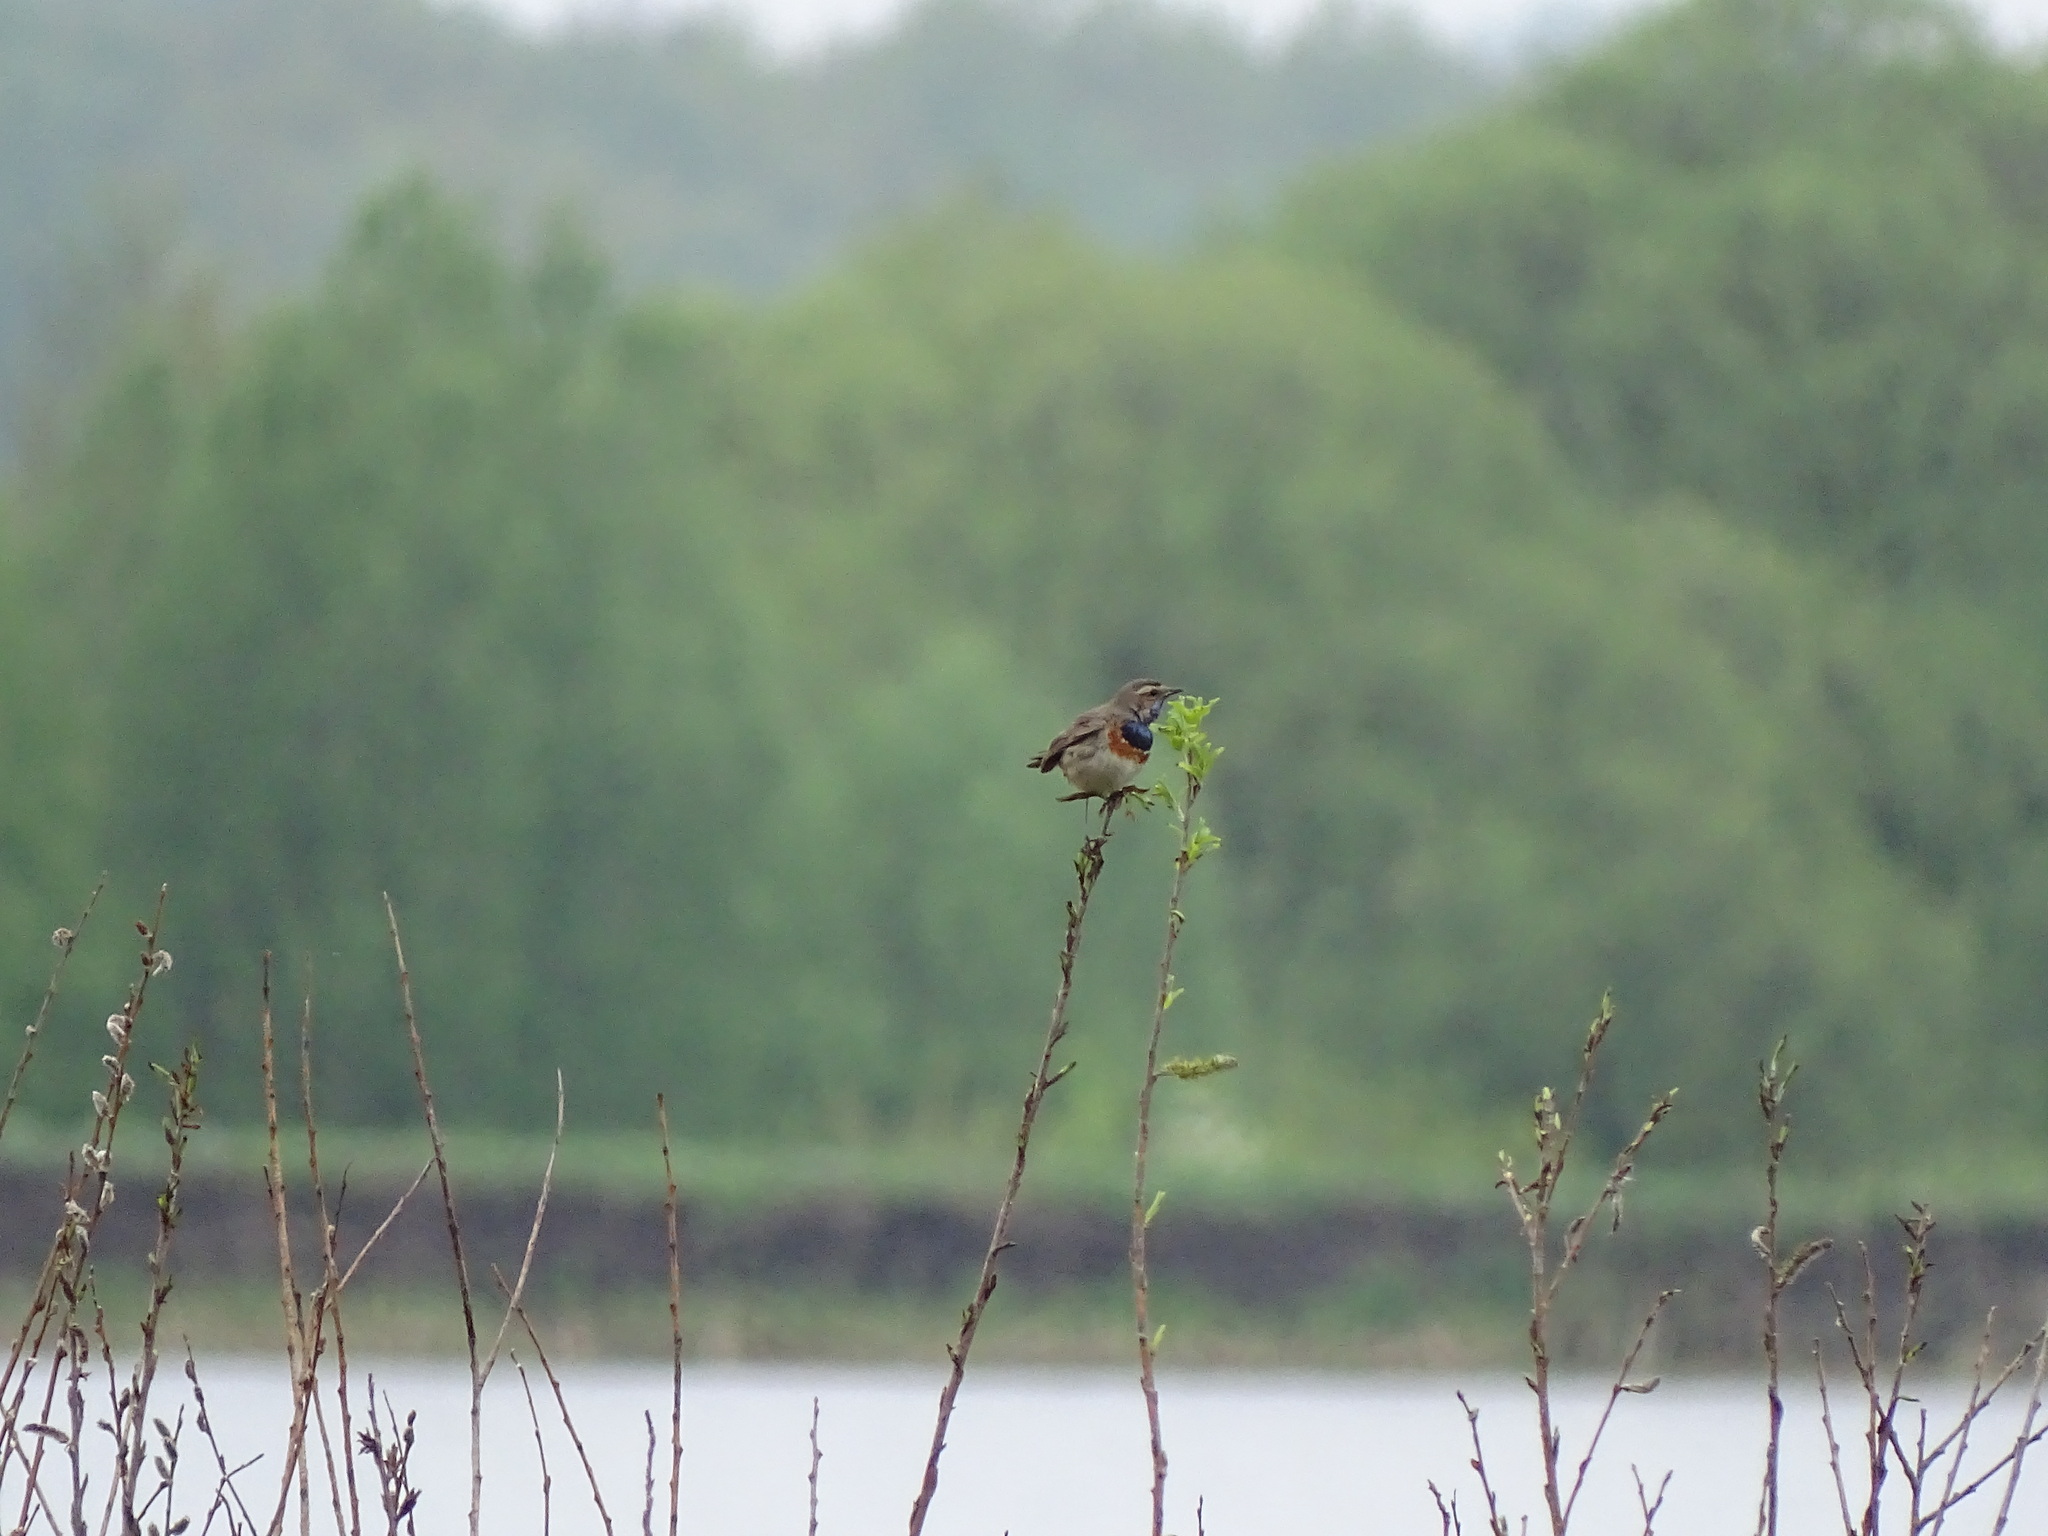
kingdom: Animalia
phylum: Chordata
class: Aves
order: Passeriformes
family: Muscicapidae
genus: Luscinia
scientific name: Luscinia svecica
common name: Bluethroat
